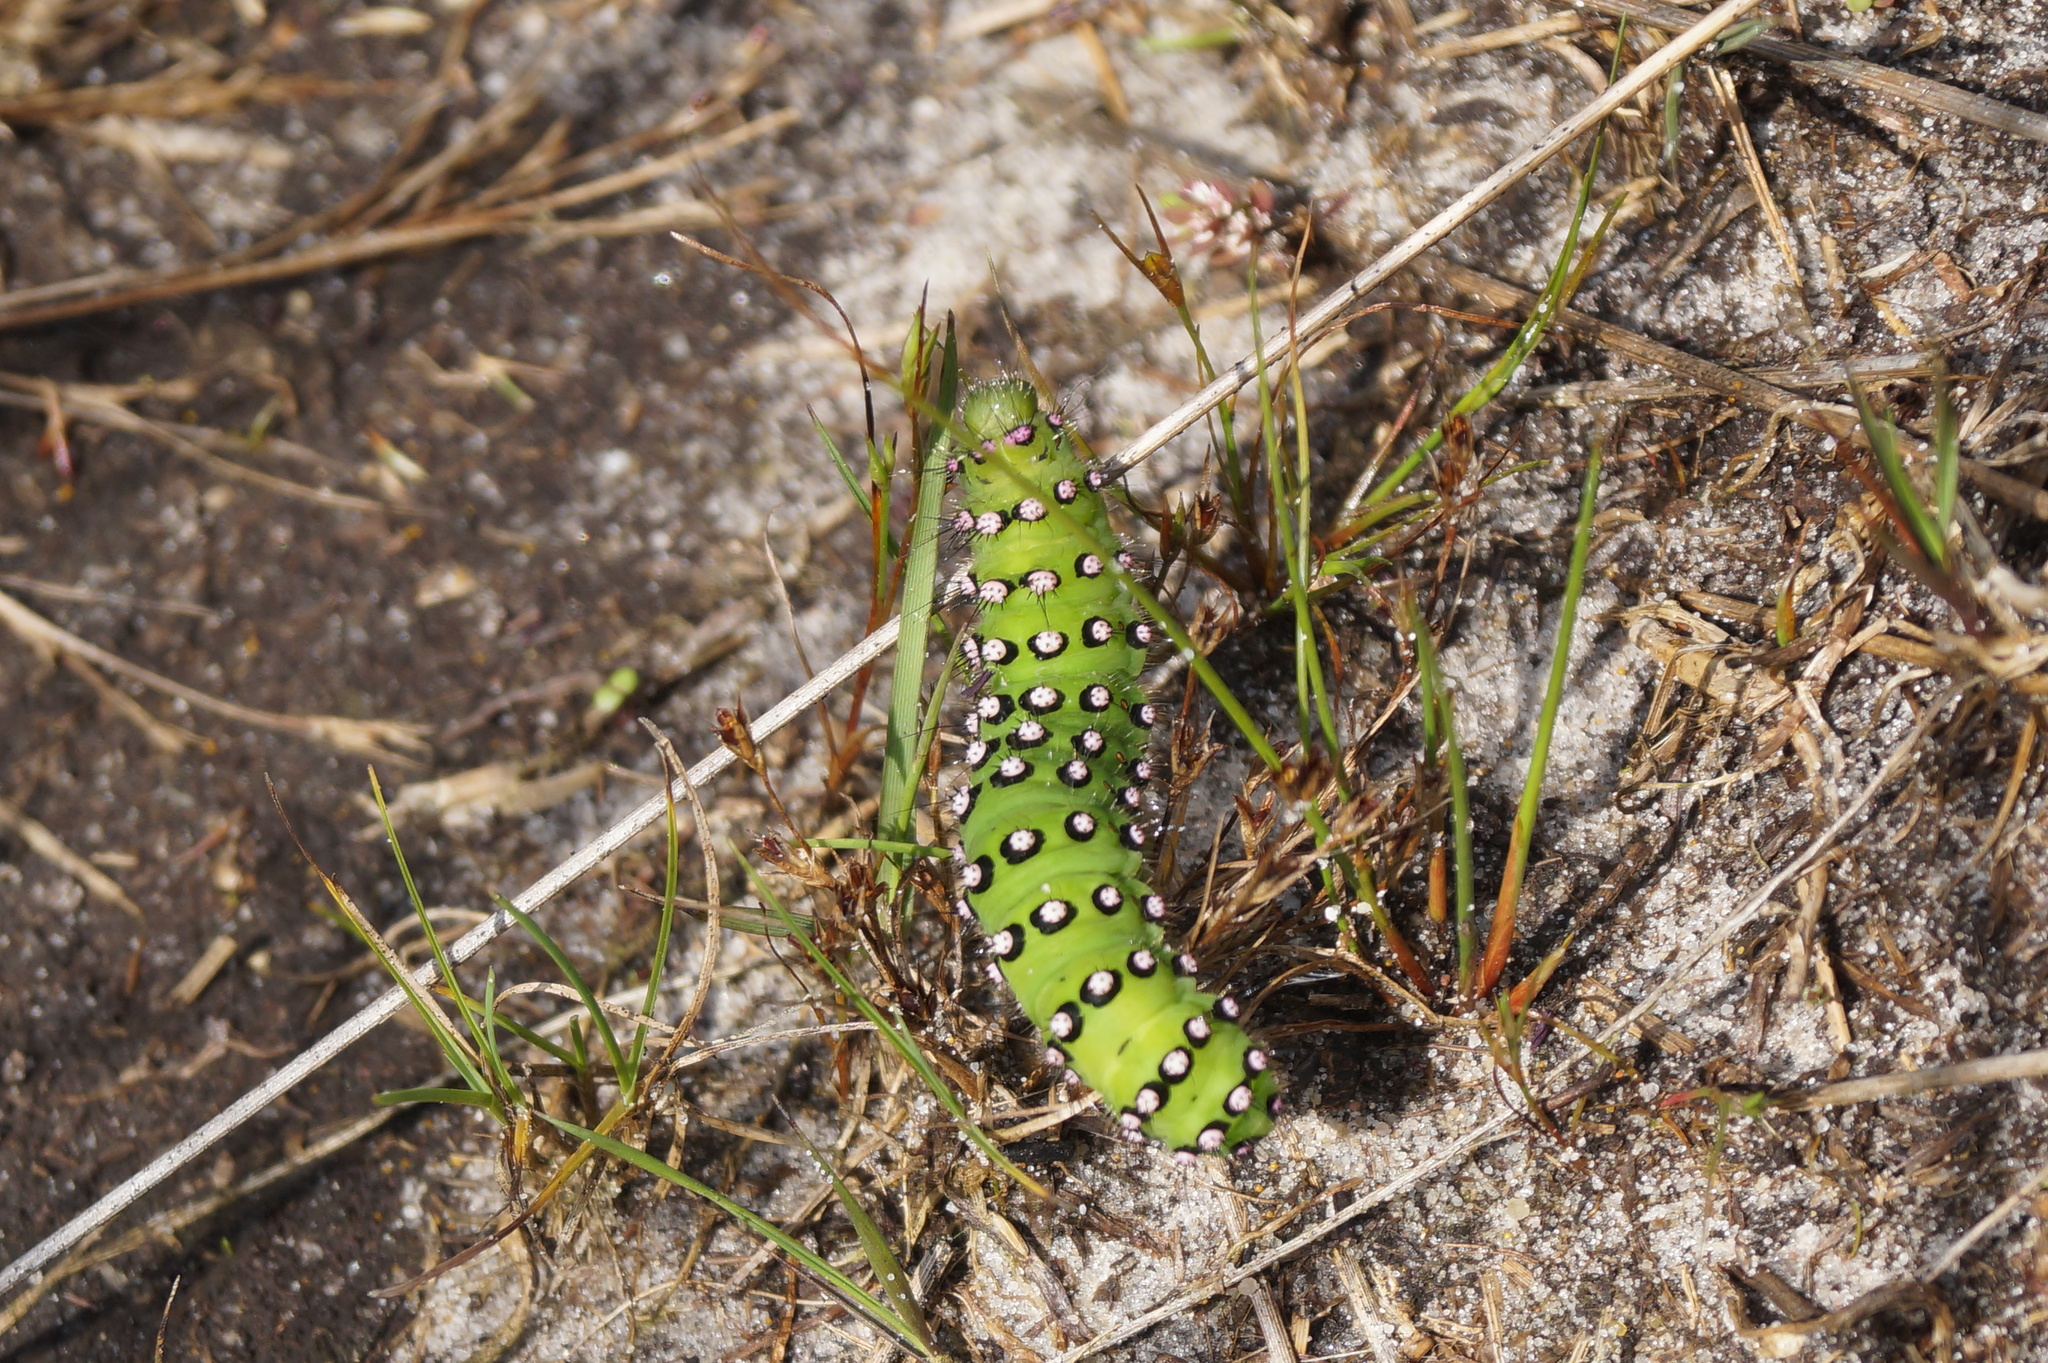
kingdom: Animalia
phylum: Arthropoda
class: Insecta
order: Lepidoptera
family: Saturniidae
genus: Saturnia
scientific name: Saturnia pavonia
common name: Emperor moth
